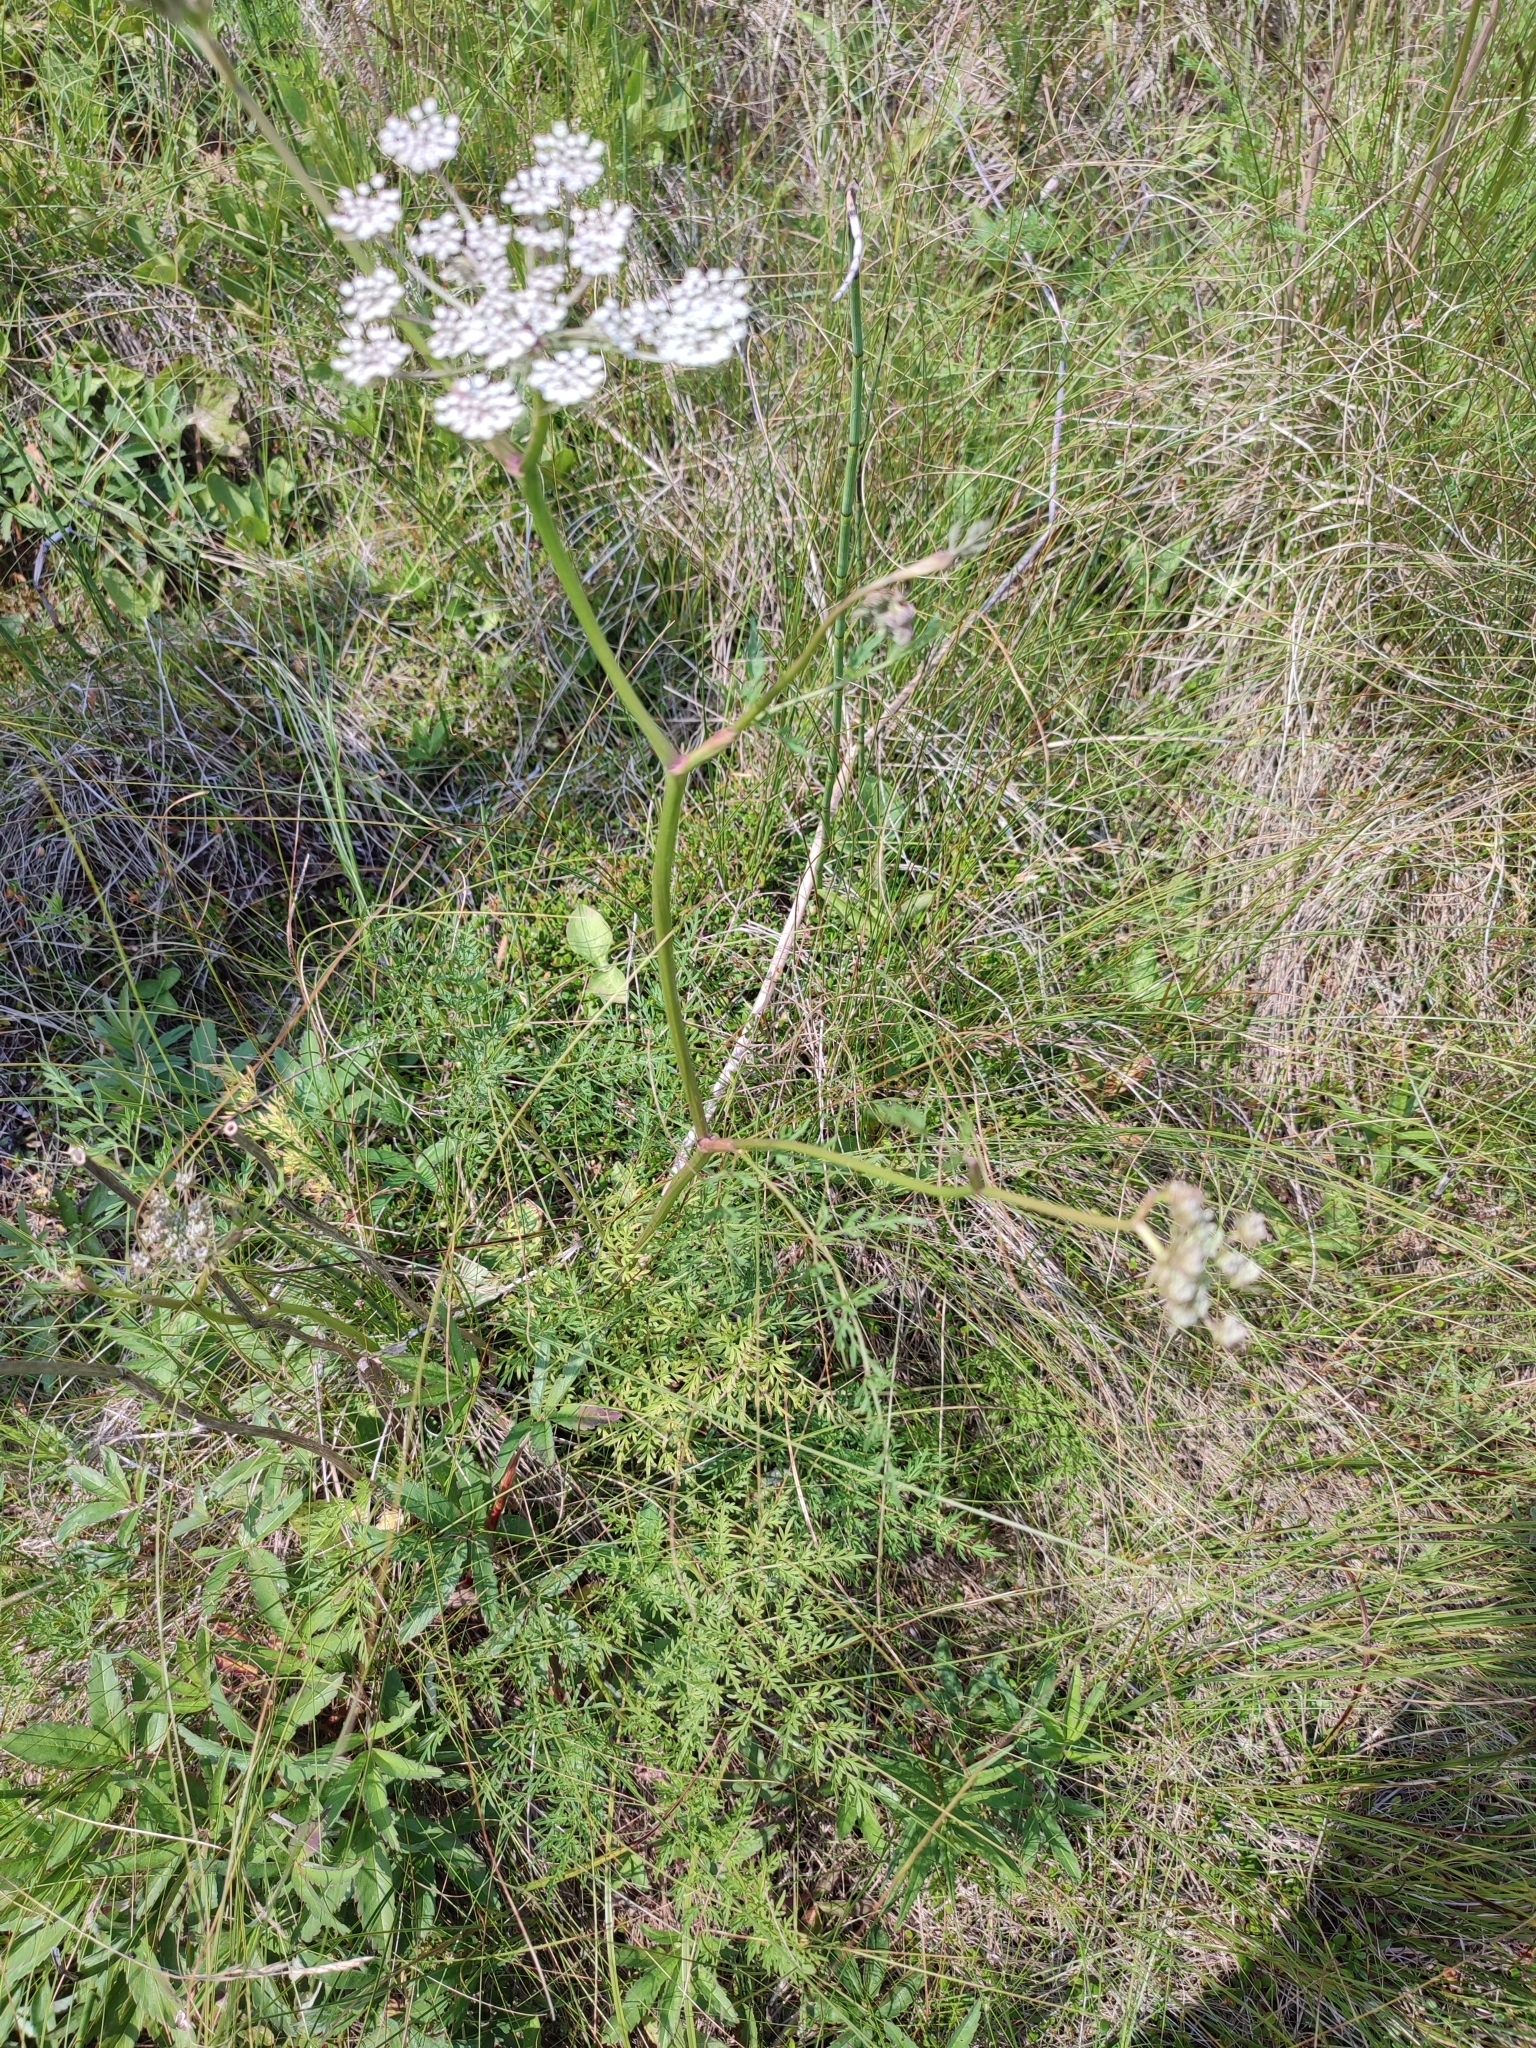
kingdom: Plantae
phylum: Tracheophyta
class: Magnoliopsida
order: Apiales
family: Apiaceae
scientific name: Apiaceae
